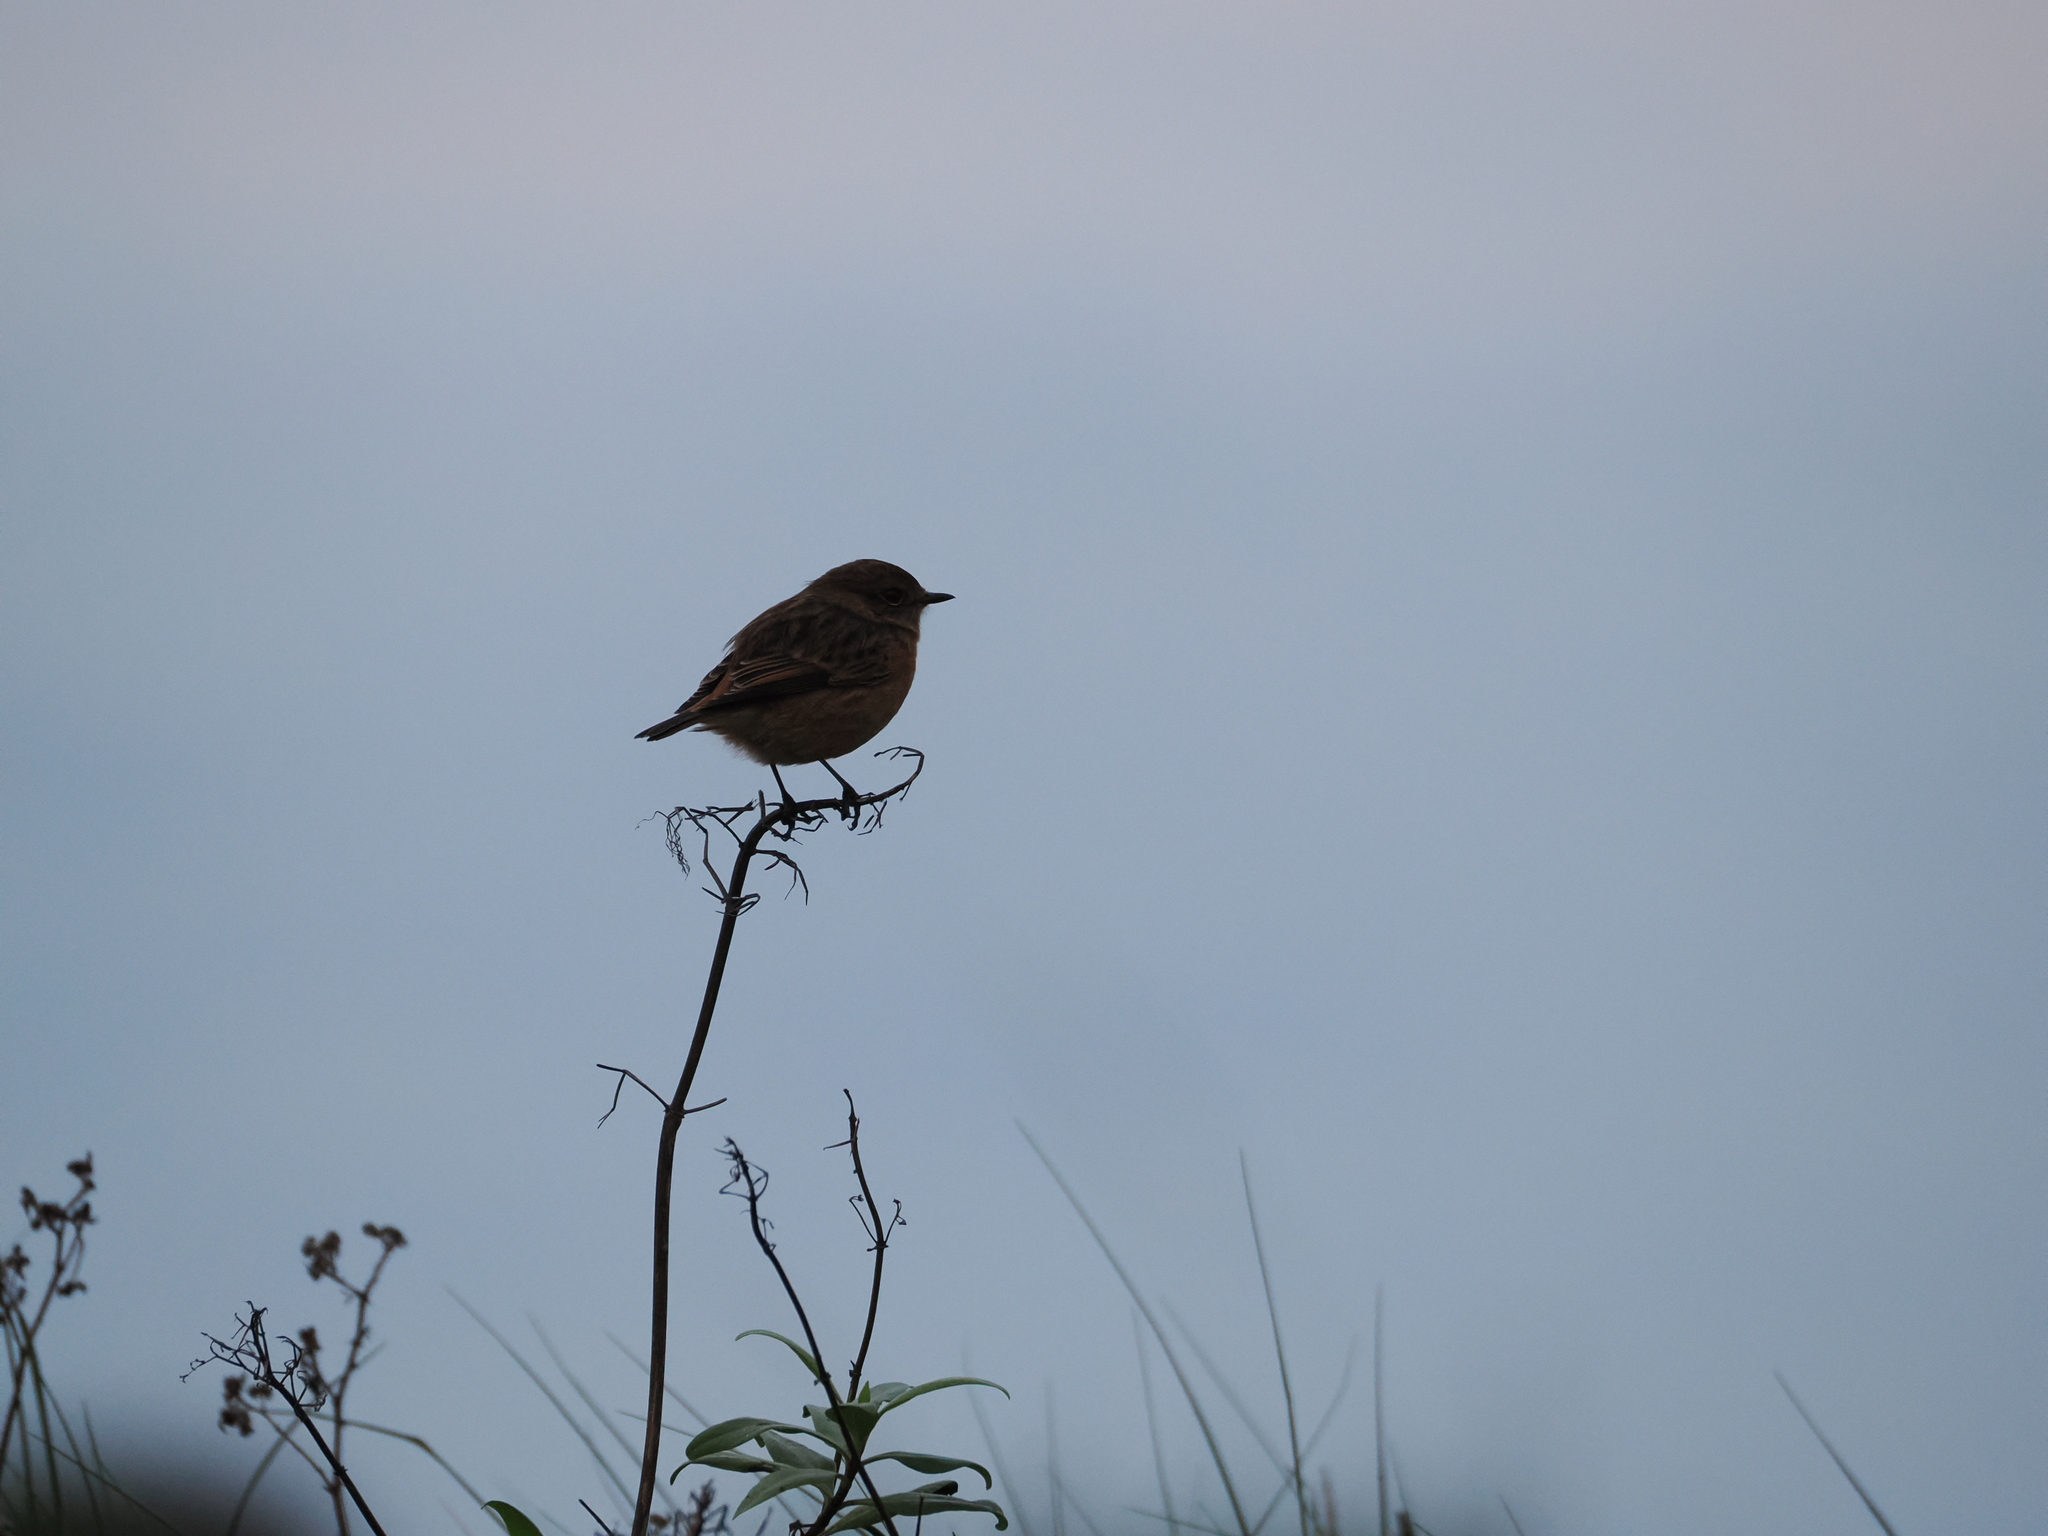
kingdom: Animalia
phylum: Chordata
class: Aves
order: Passeriformes
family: Muscicapidae
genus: Saxicola
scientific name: Saxicola rubicola
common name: European stonechat
